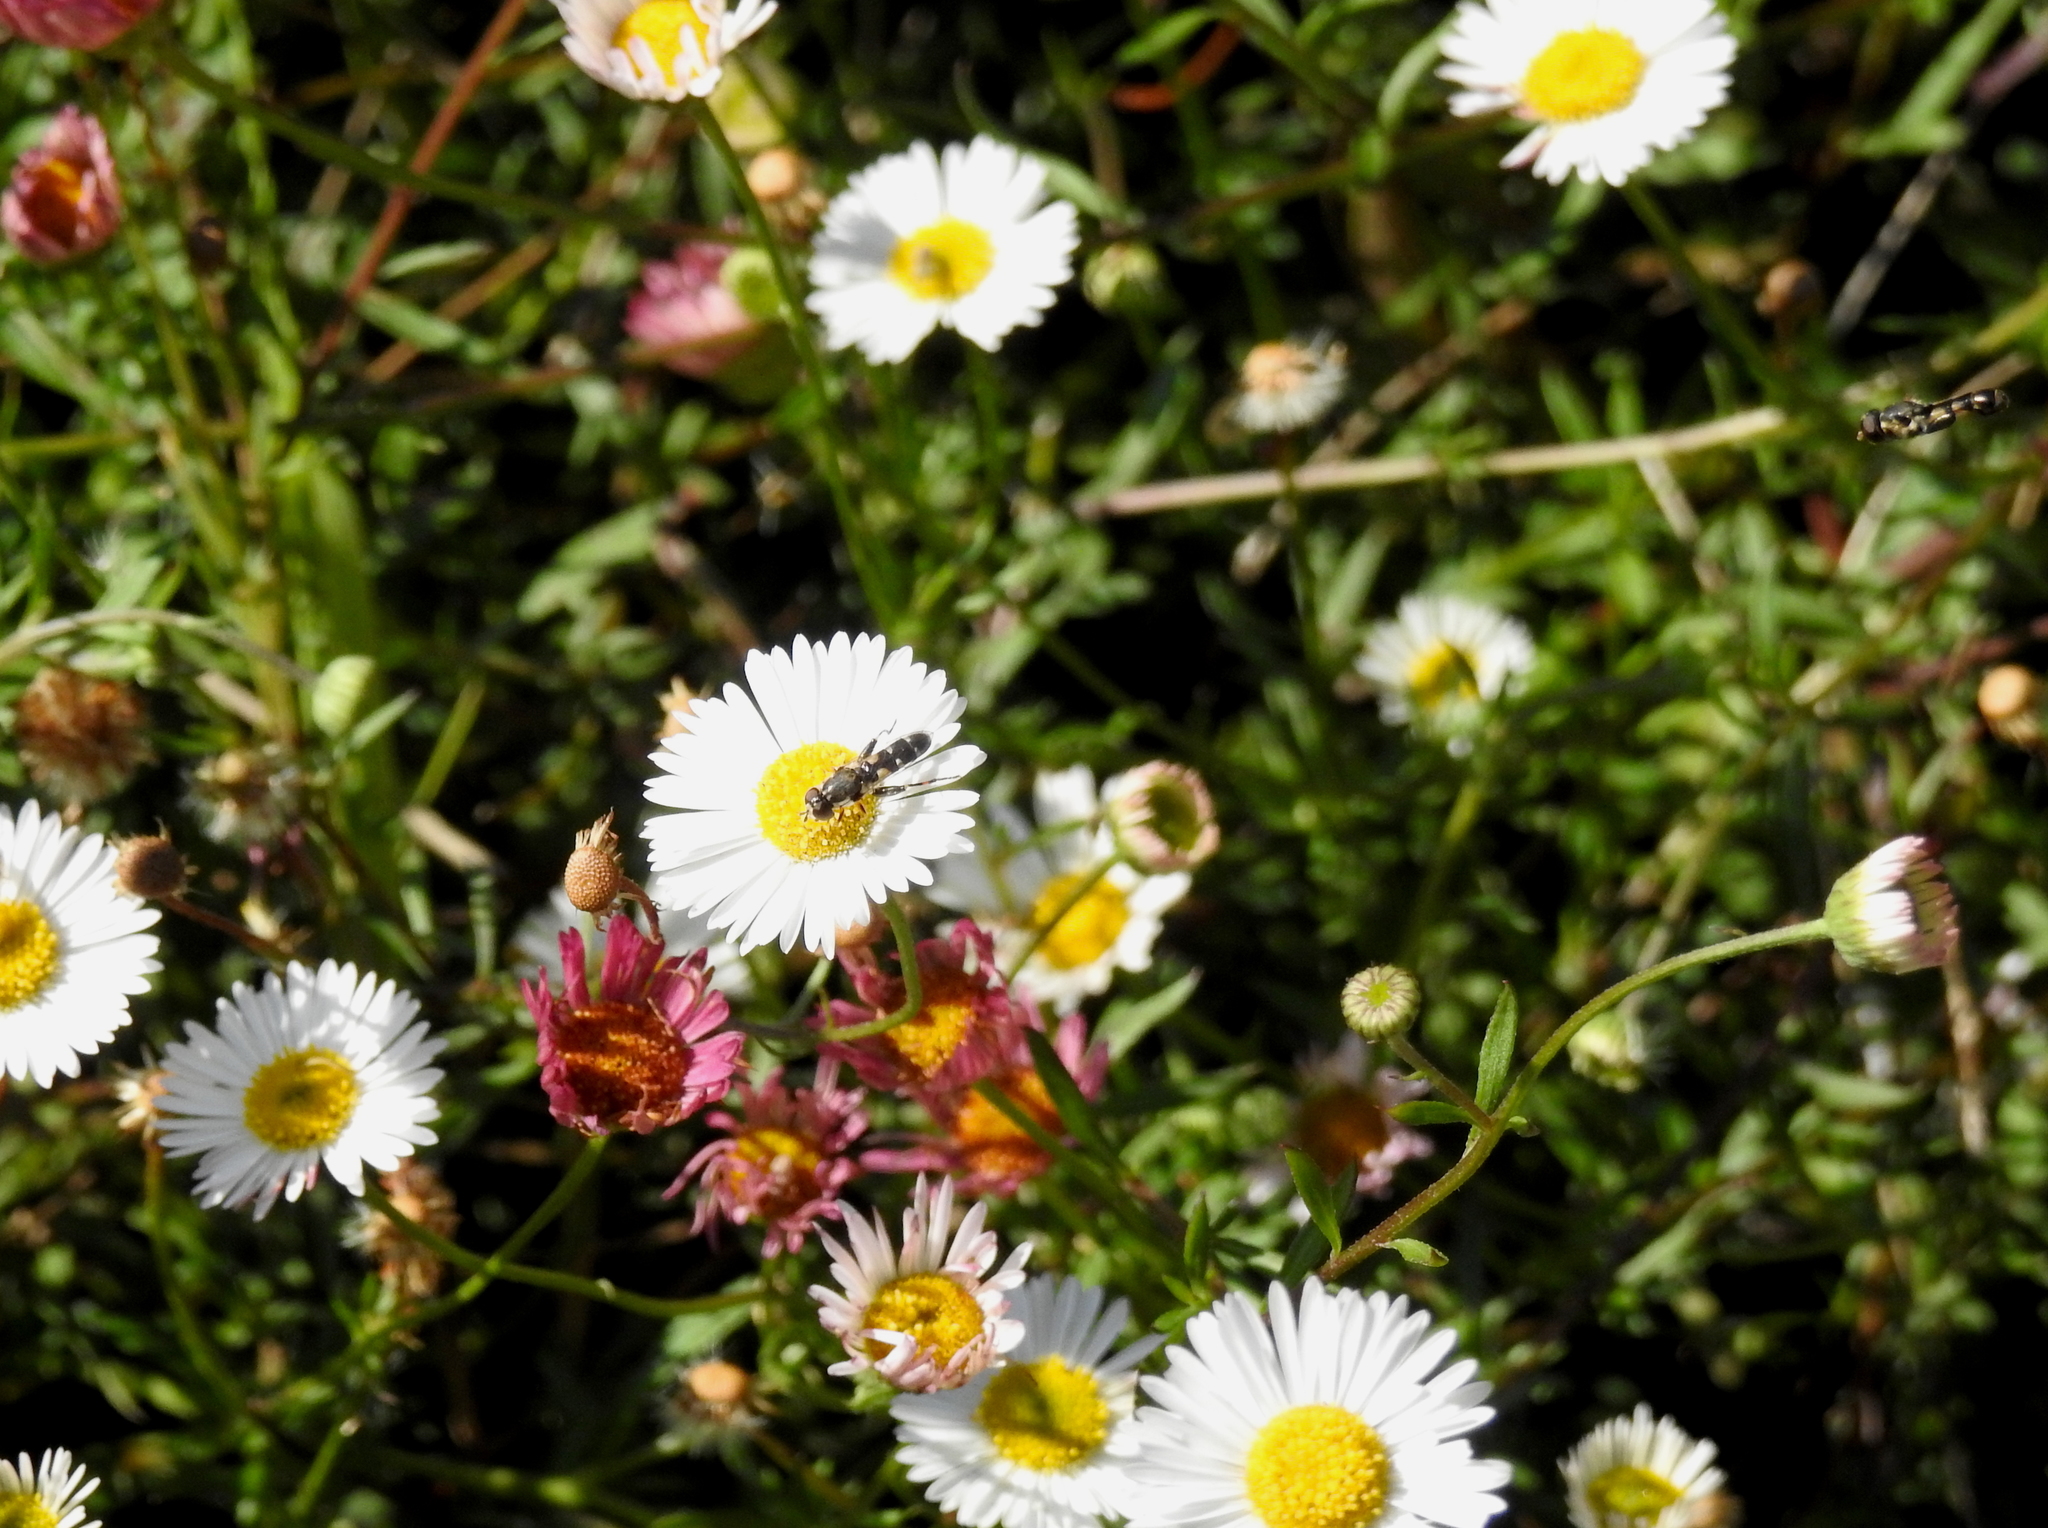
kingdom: Animalia
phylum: Arthropoda
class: Insecta
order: Diptera
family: Syrphidae
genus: Syritta
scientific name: Syritta pipiens
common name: Hover fly
